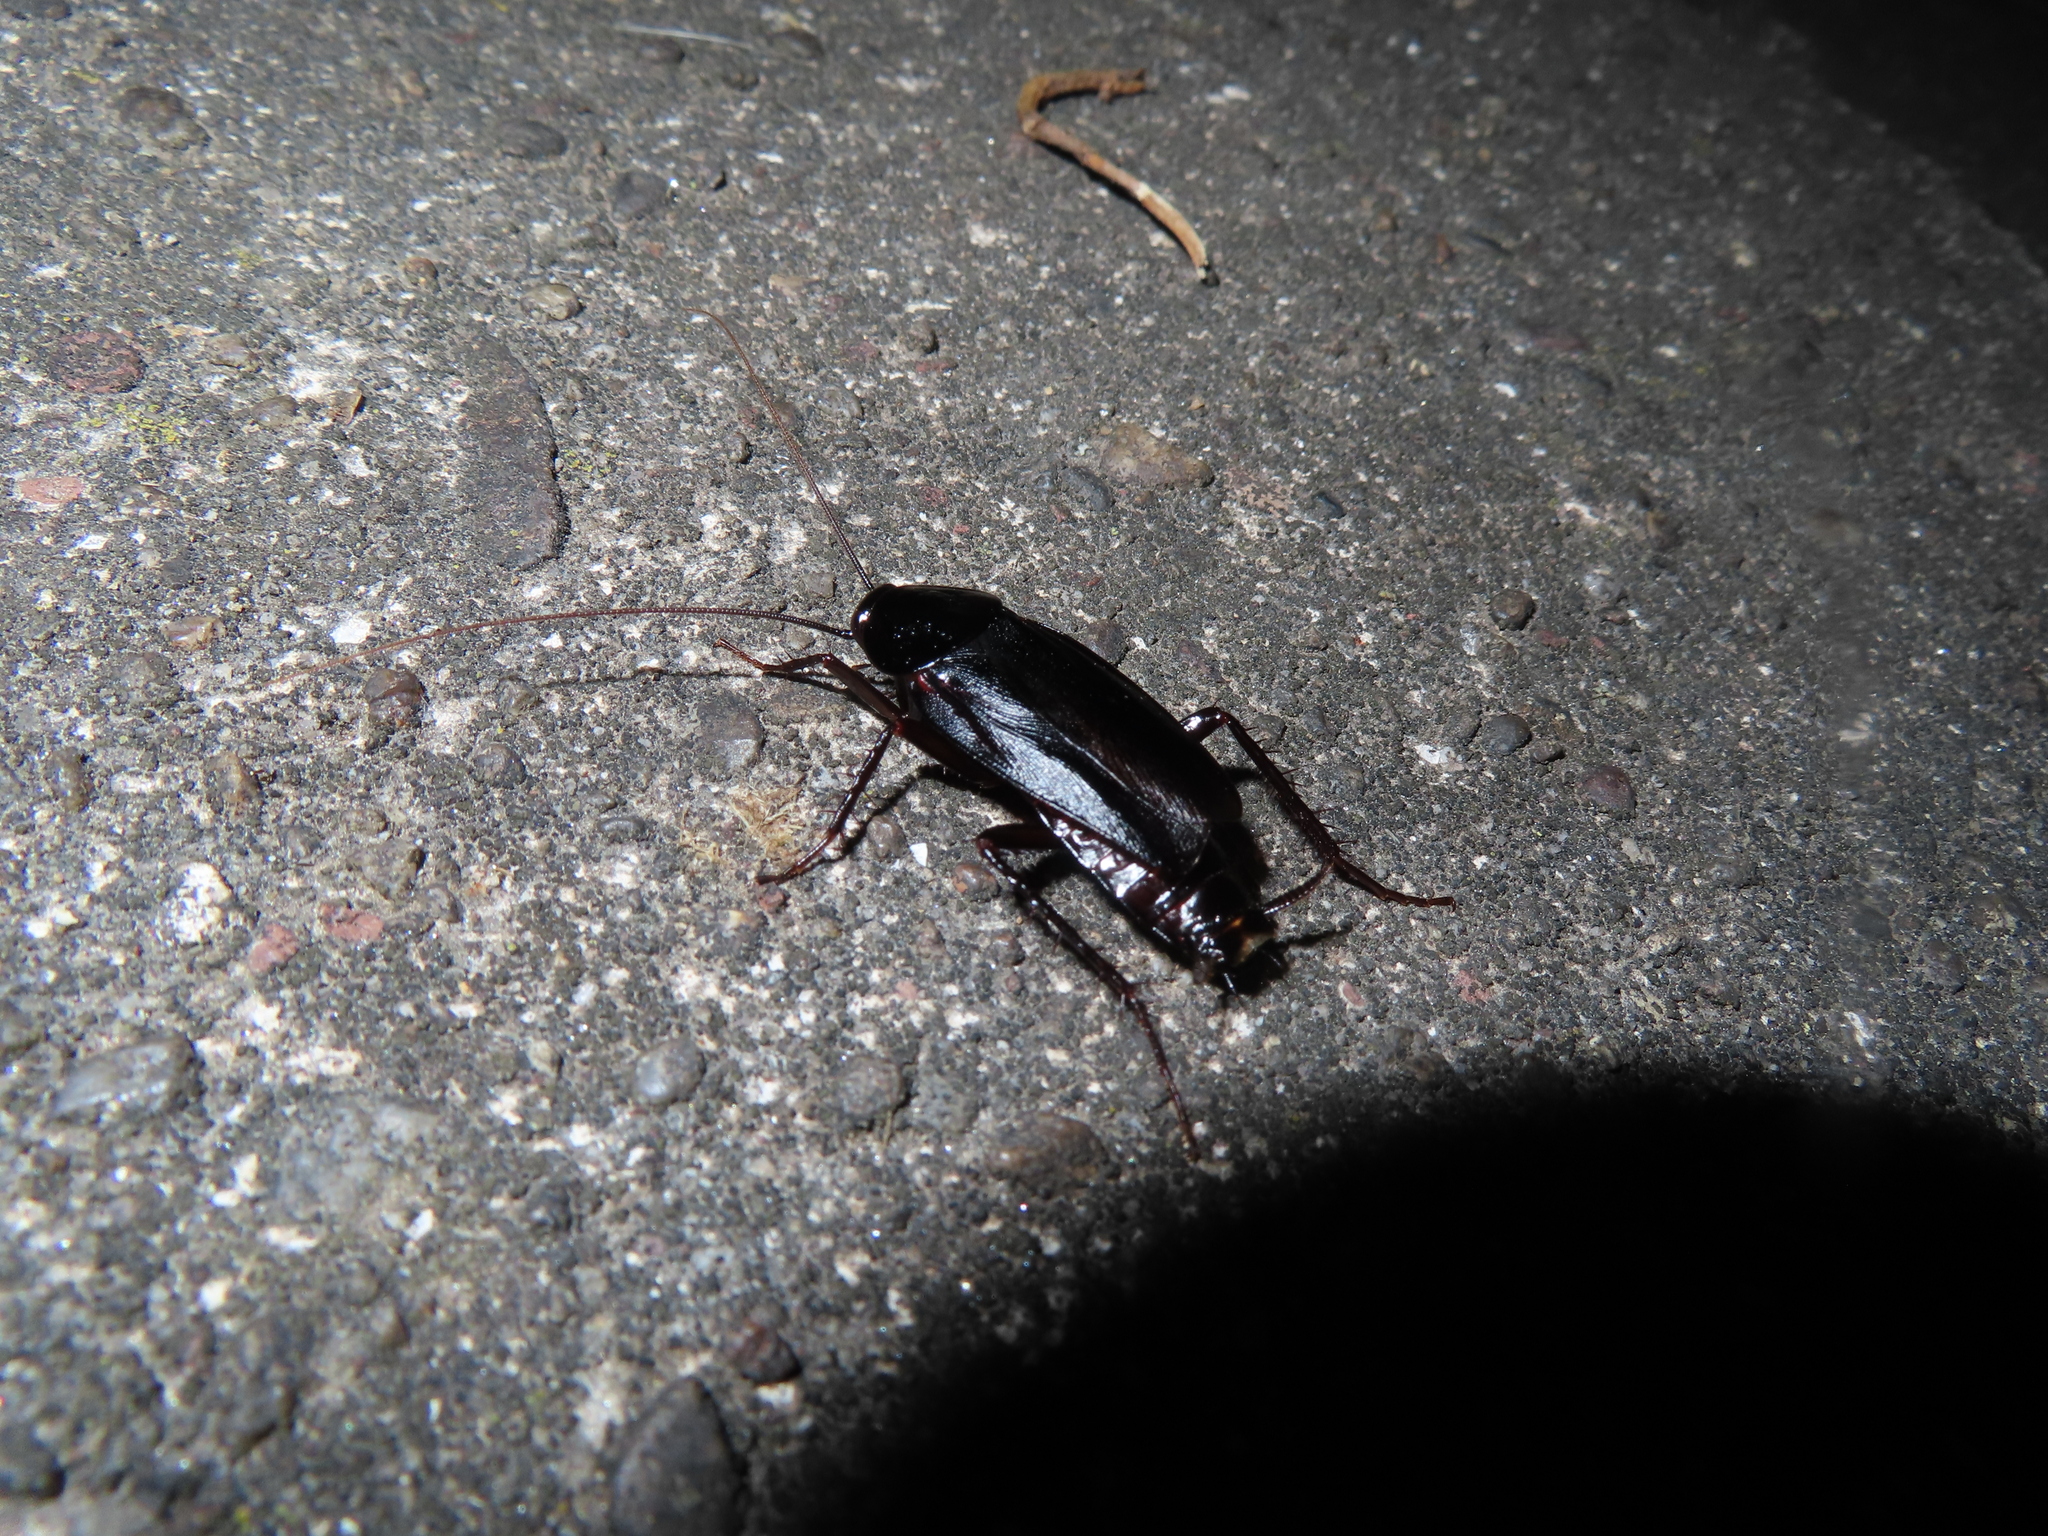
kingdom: Animalia
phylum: Arthropoda
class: Insecta
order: Blattodea
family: Blattidae
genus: Blatta
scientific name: Blatta orientalis
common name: Oriental cockroach
